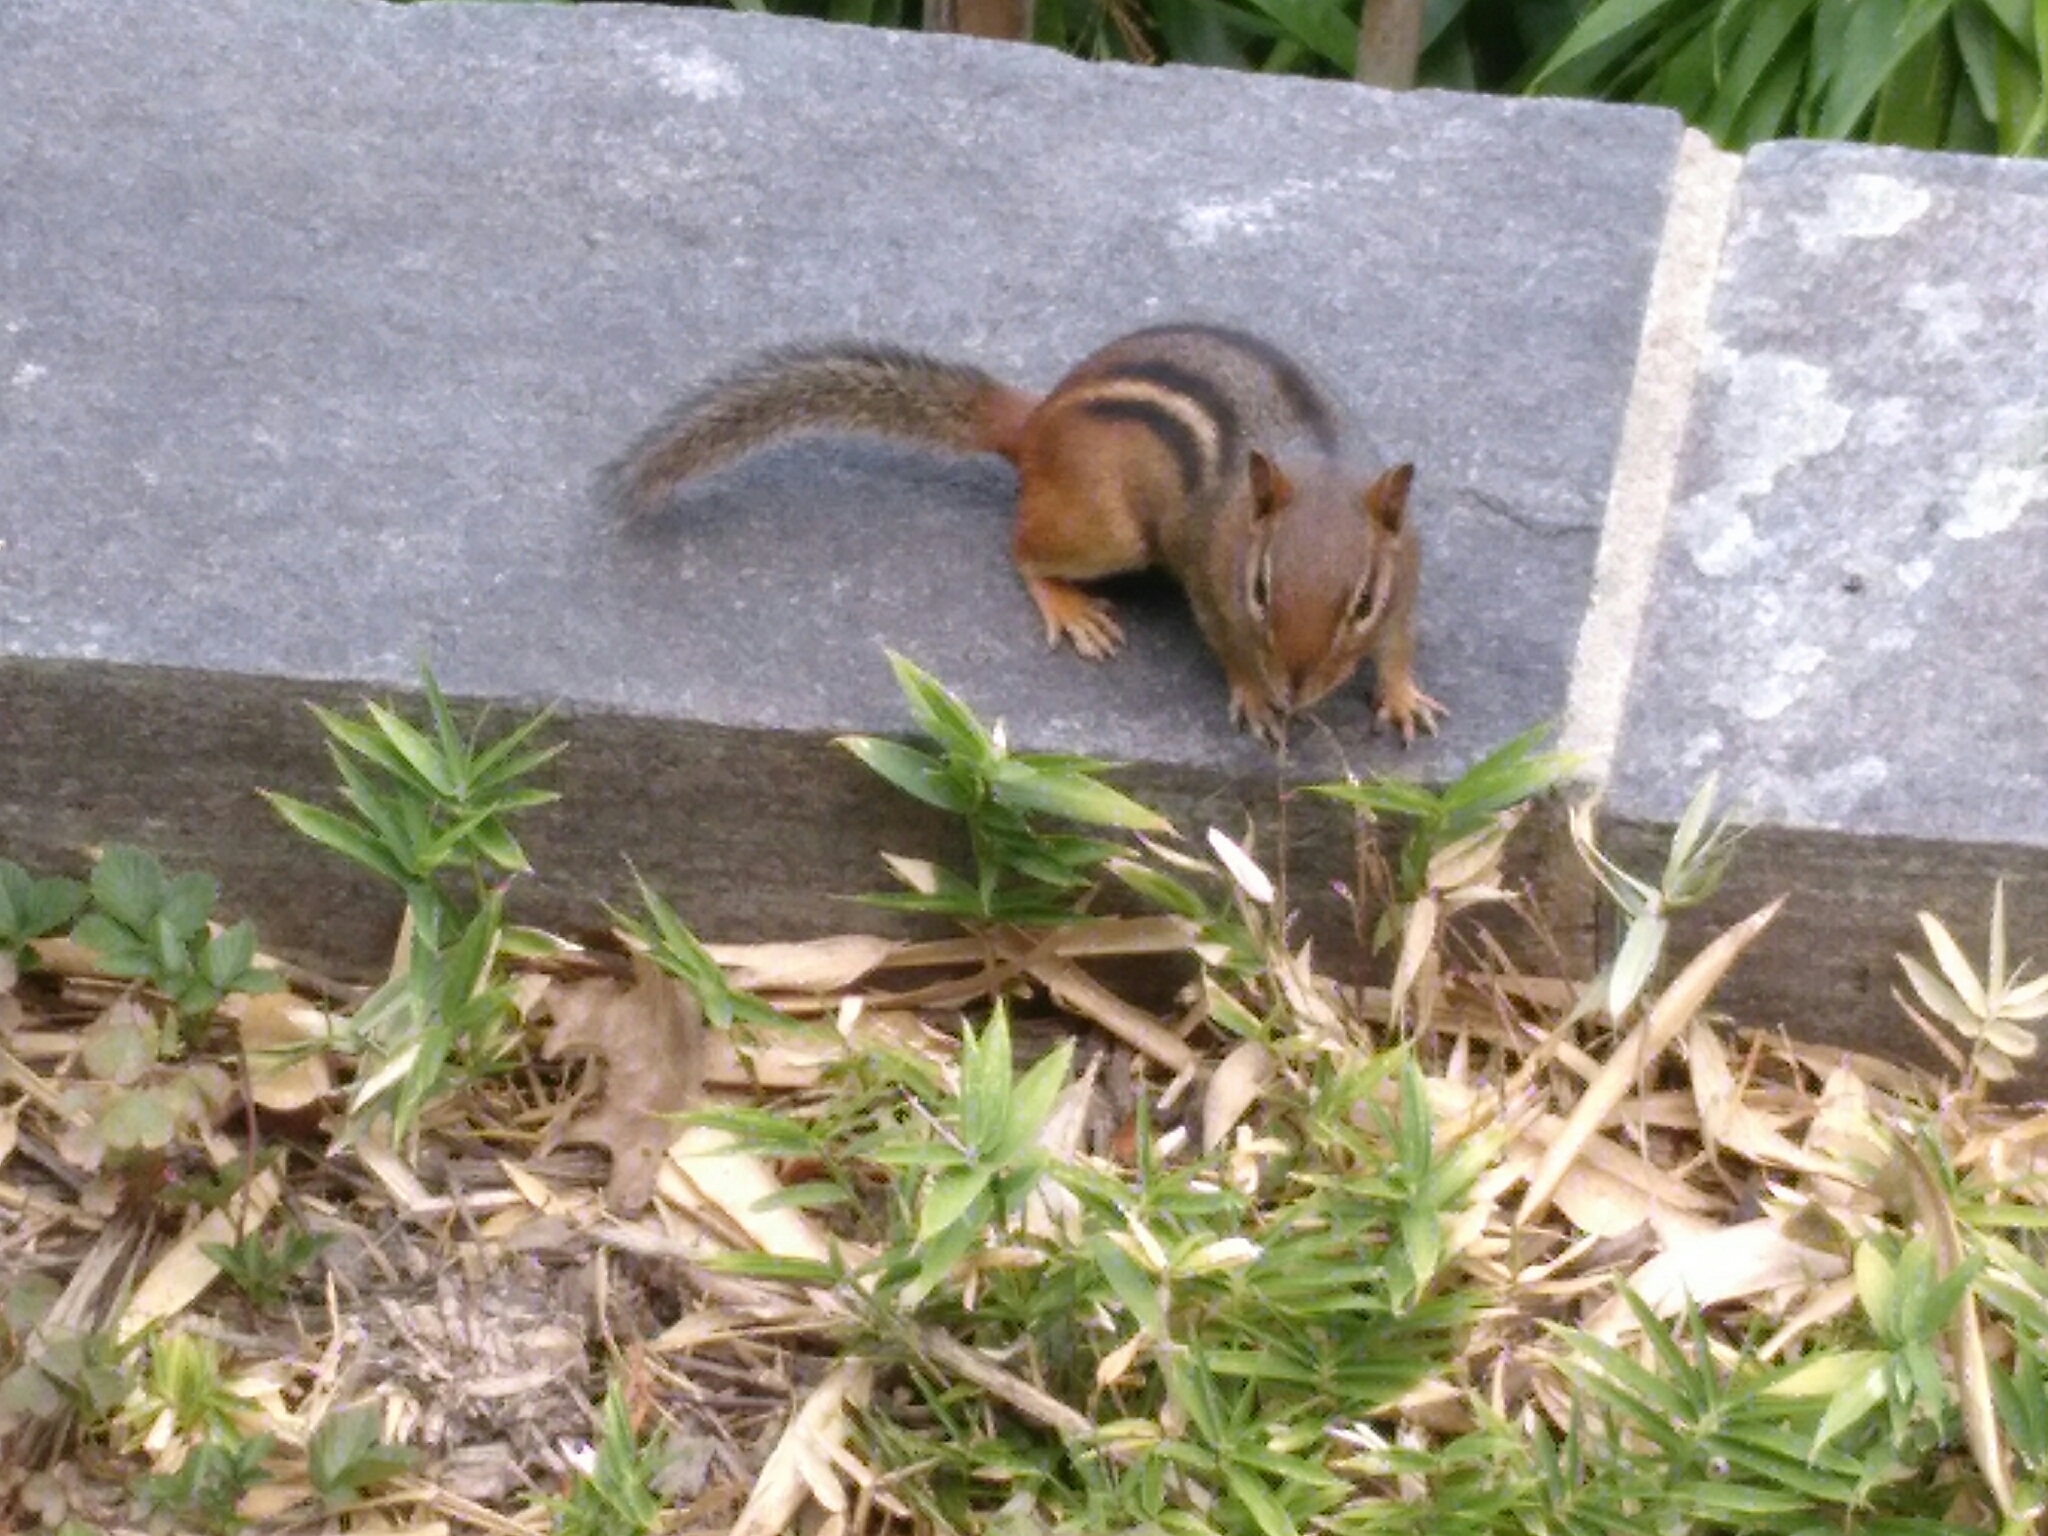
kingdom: Animalia
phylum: Chordata
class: Mammalia
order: Rodentia
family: Sciuridae
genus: Tamias
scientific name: Tamias striatus
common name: Eastern chipmunk
